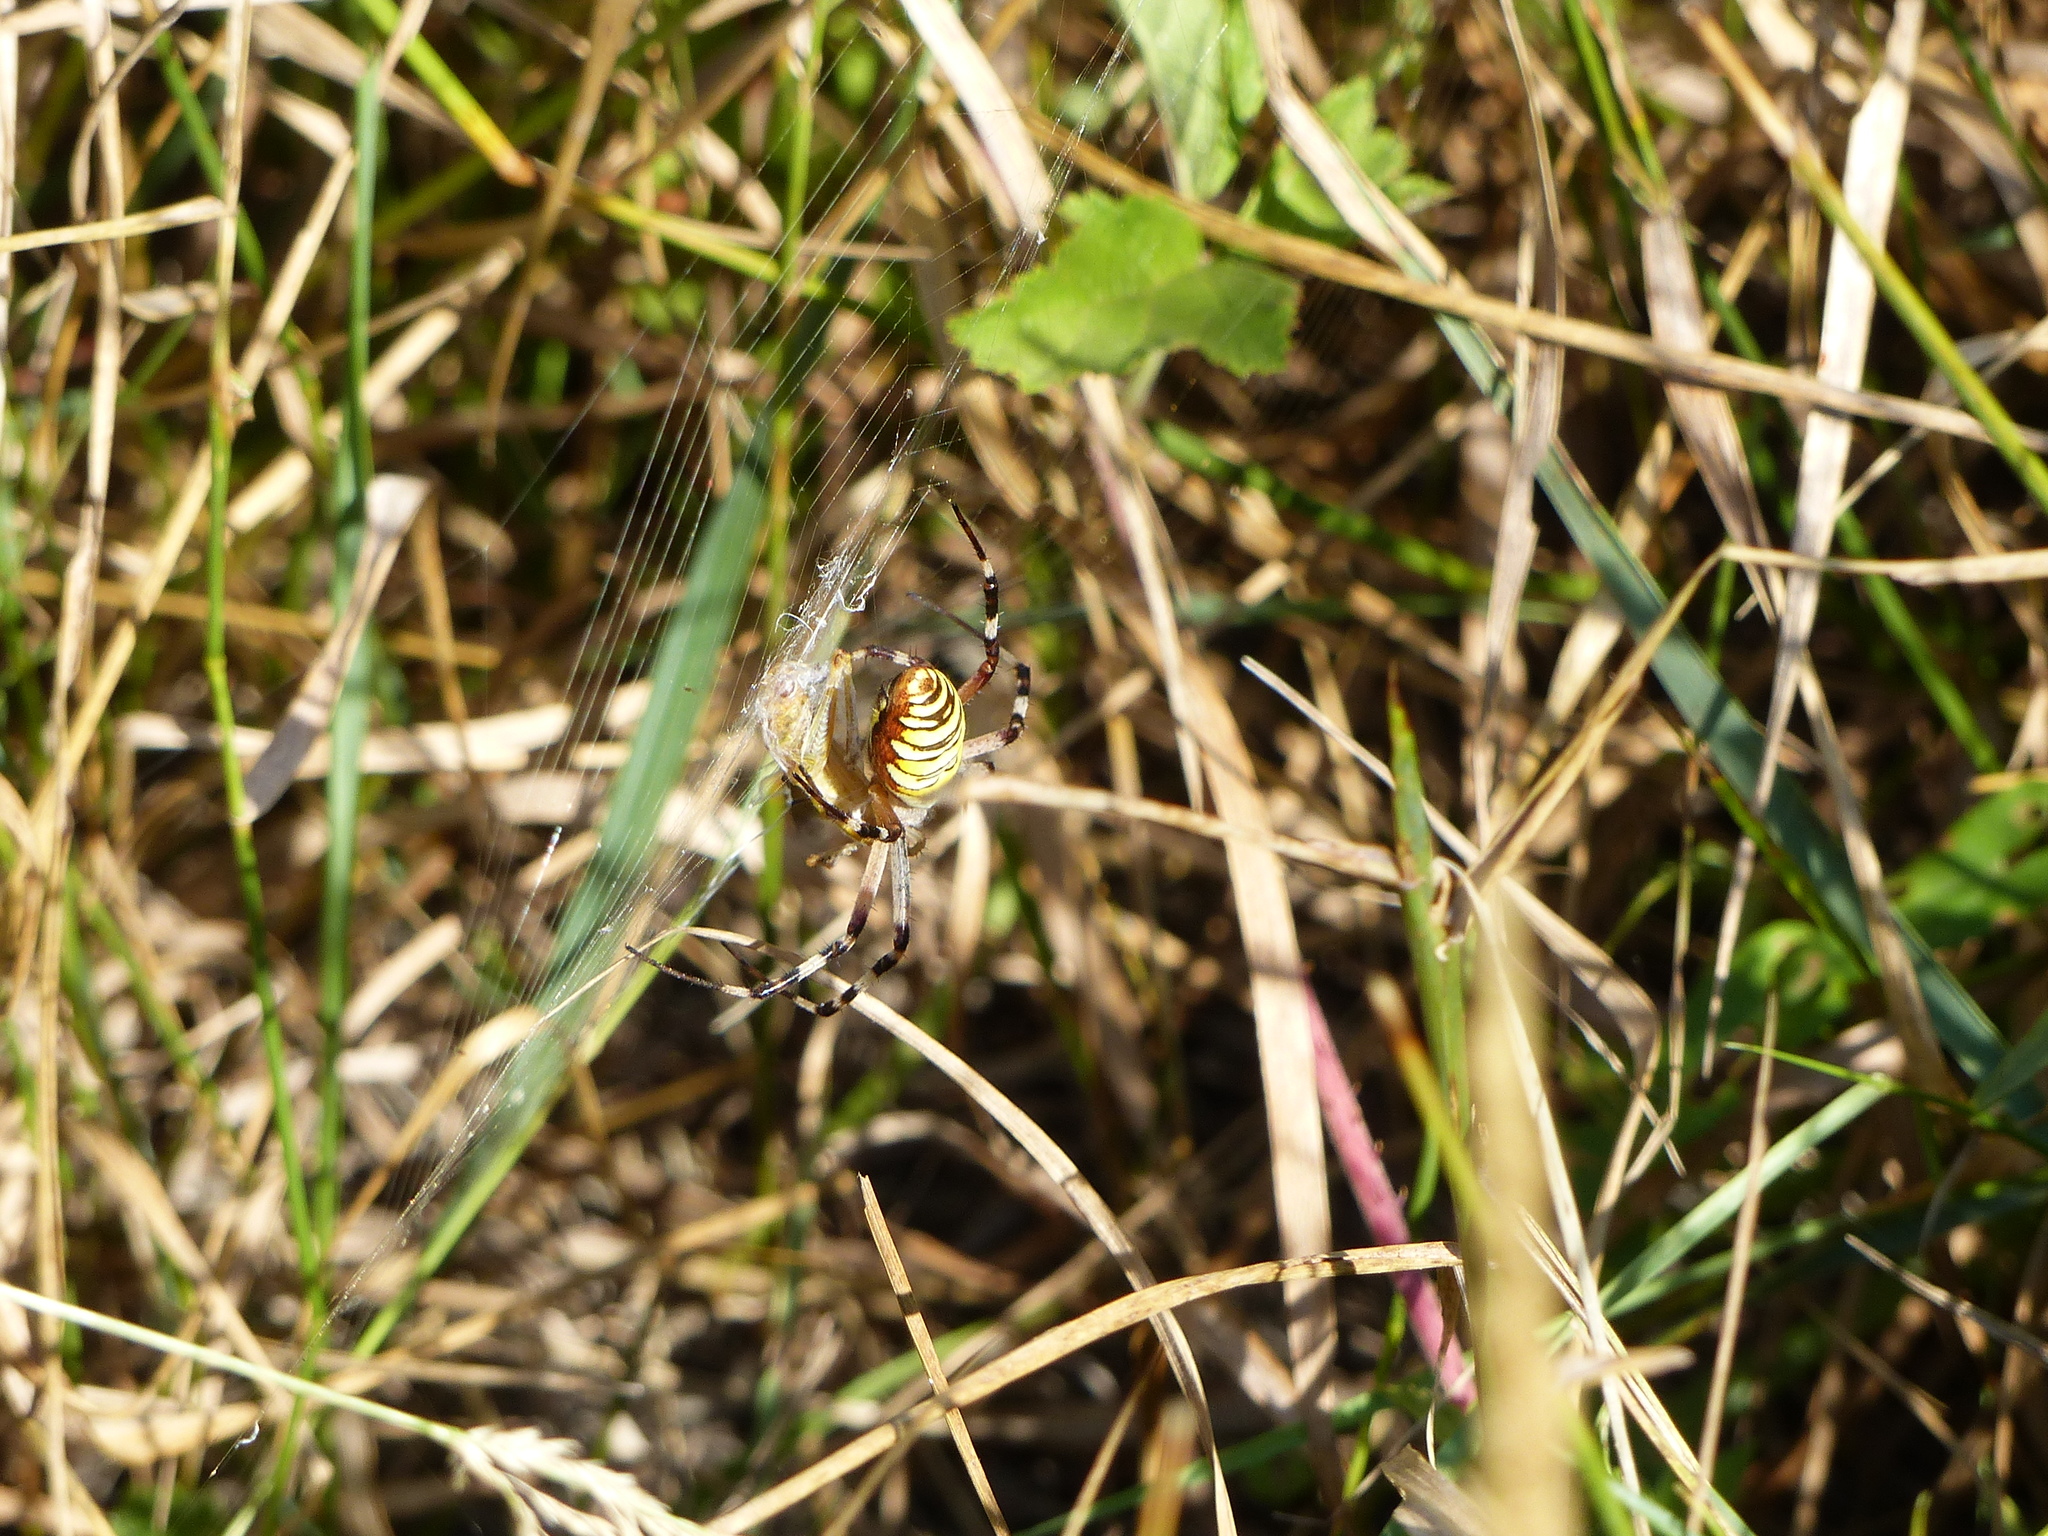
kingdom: Animalia
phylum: Arthropoda
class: Arachnida
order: Araneae
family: Araneidae
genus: Argiope
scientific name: Argiope bruennichi
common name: Wasp spider
